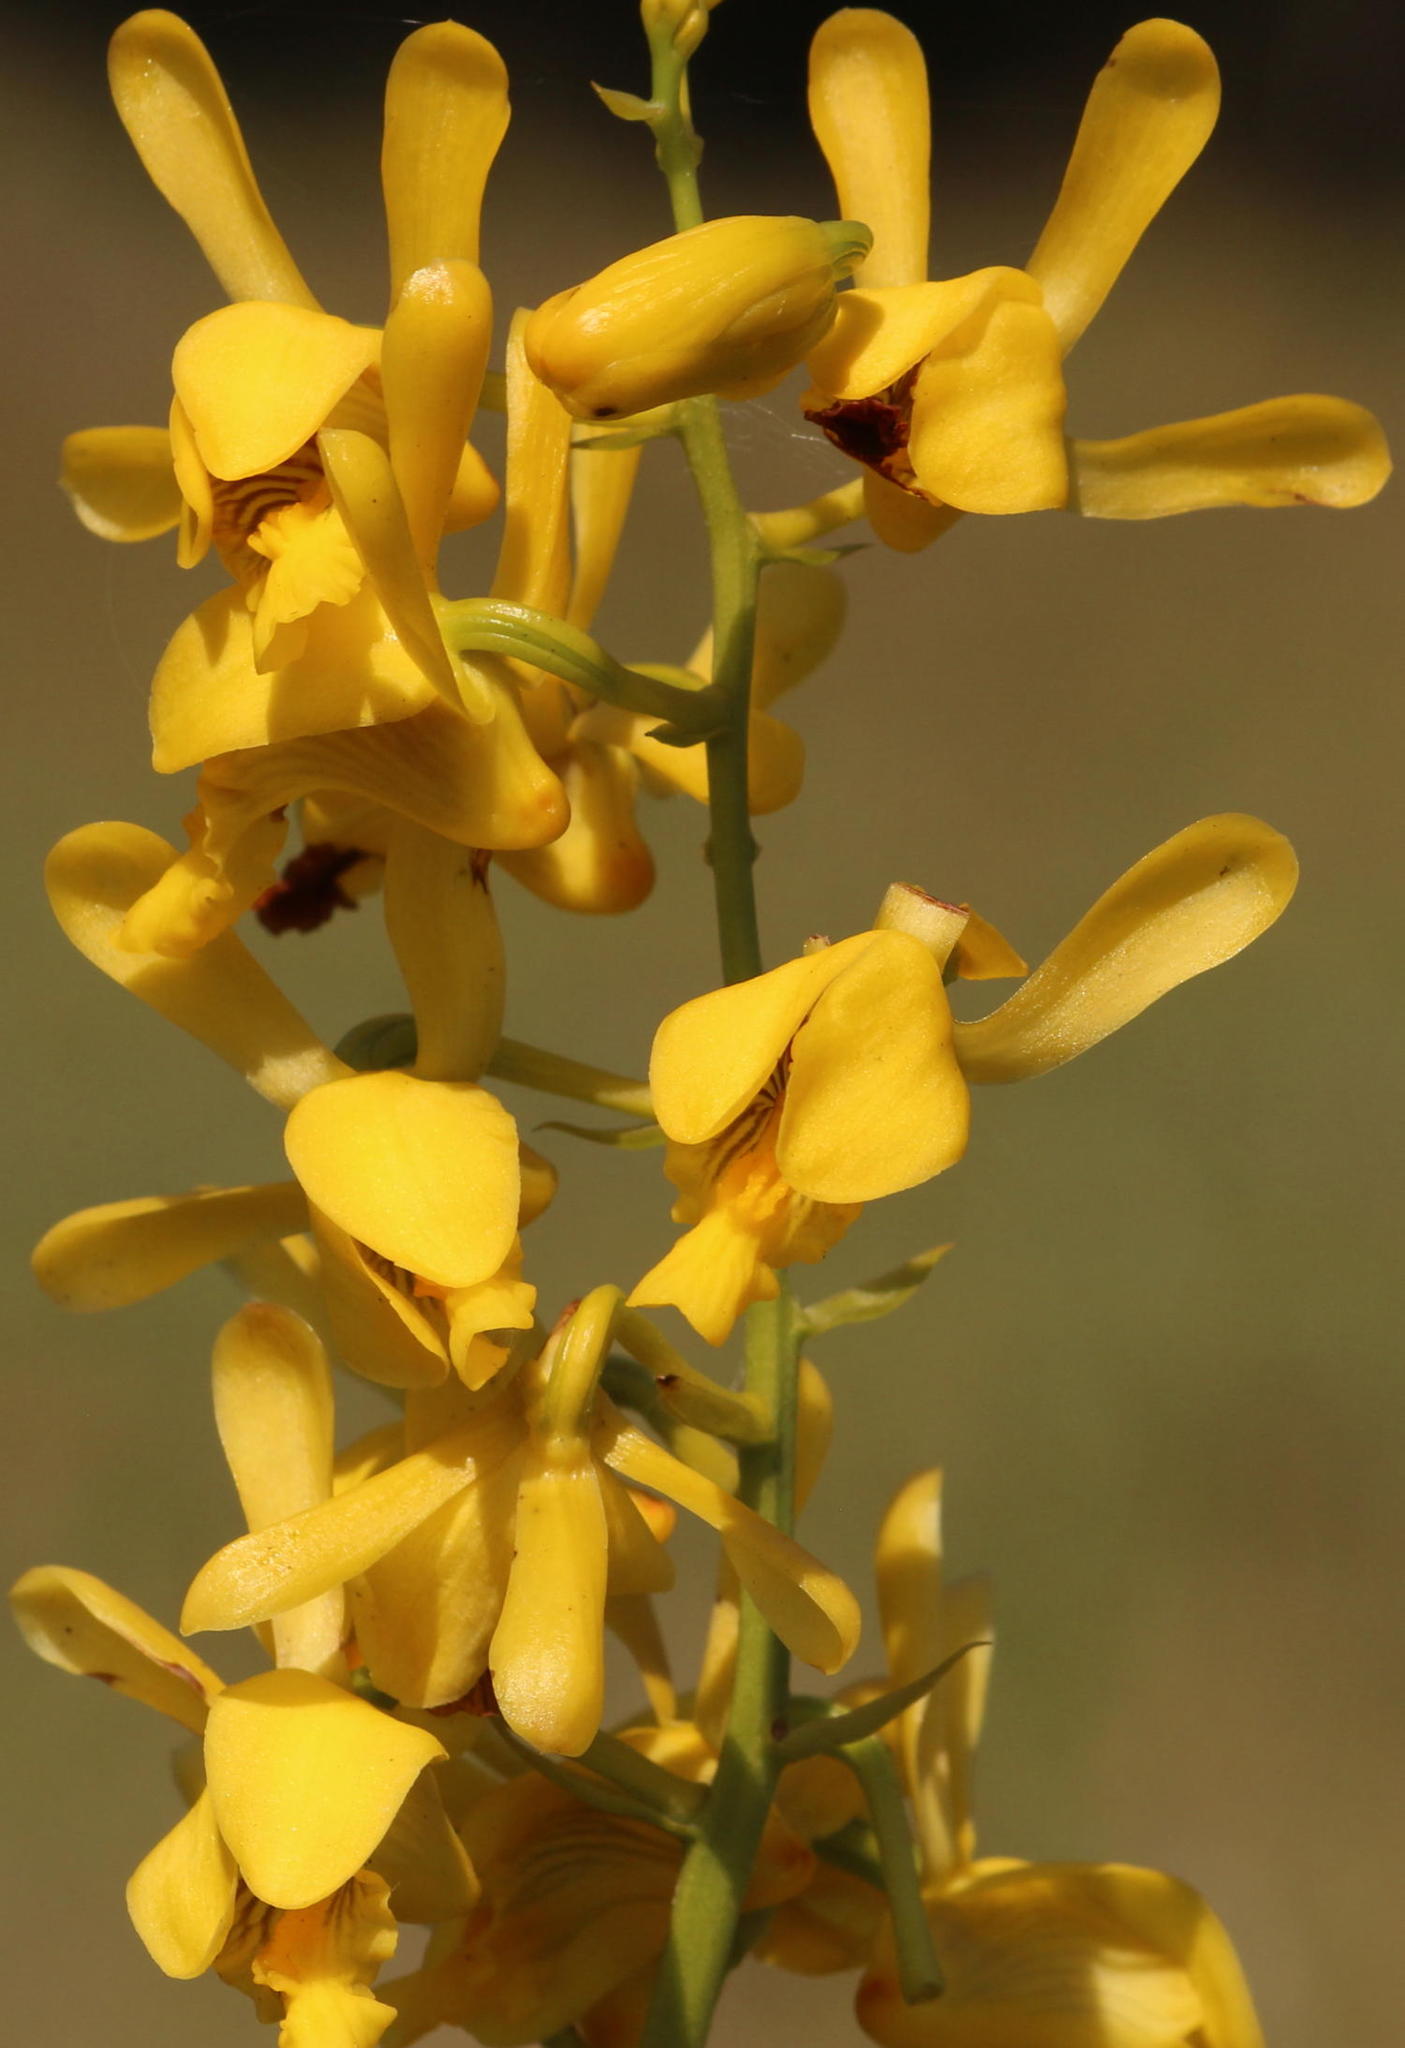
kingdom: Plantae
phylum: Tracheophyta
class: Liliopsida
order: Asparagales
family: Orchidaceae
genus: Eulophia
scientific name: Eulophia angolensis
